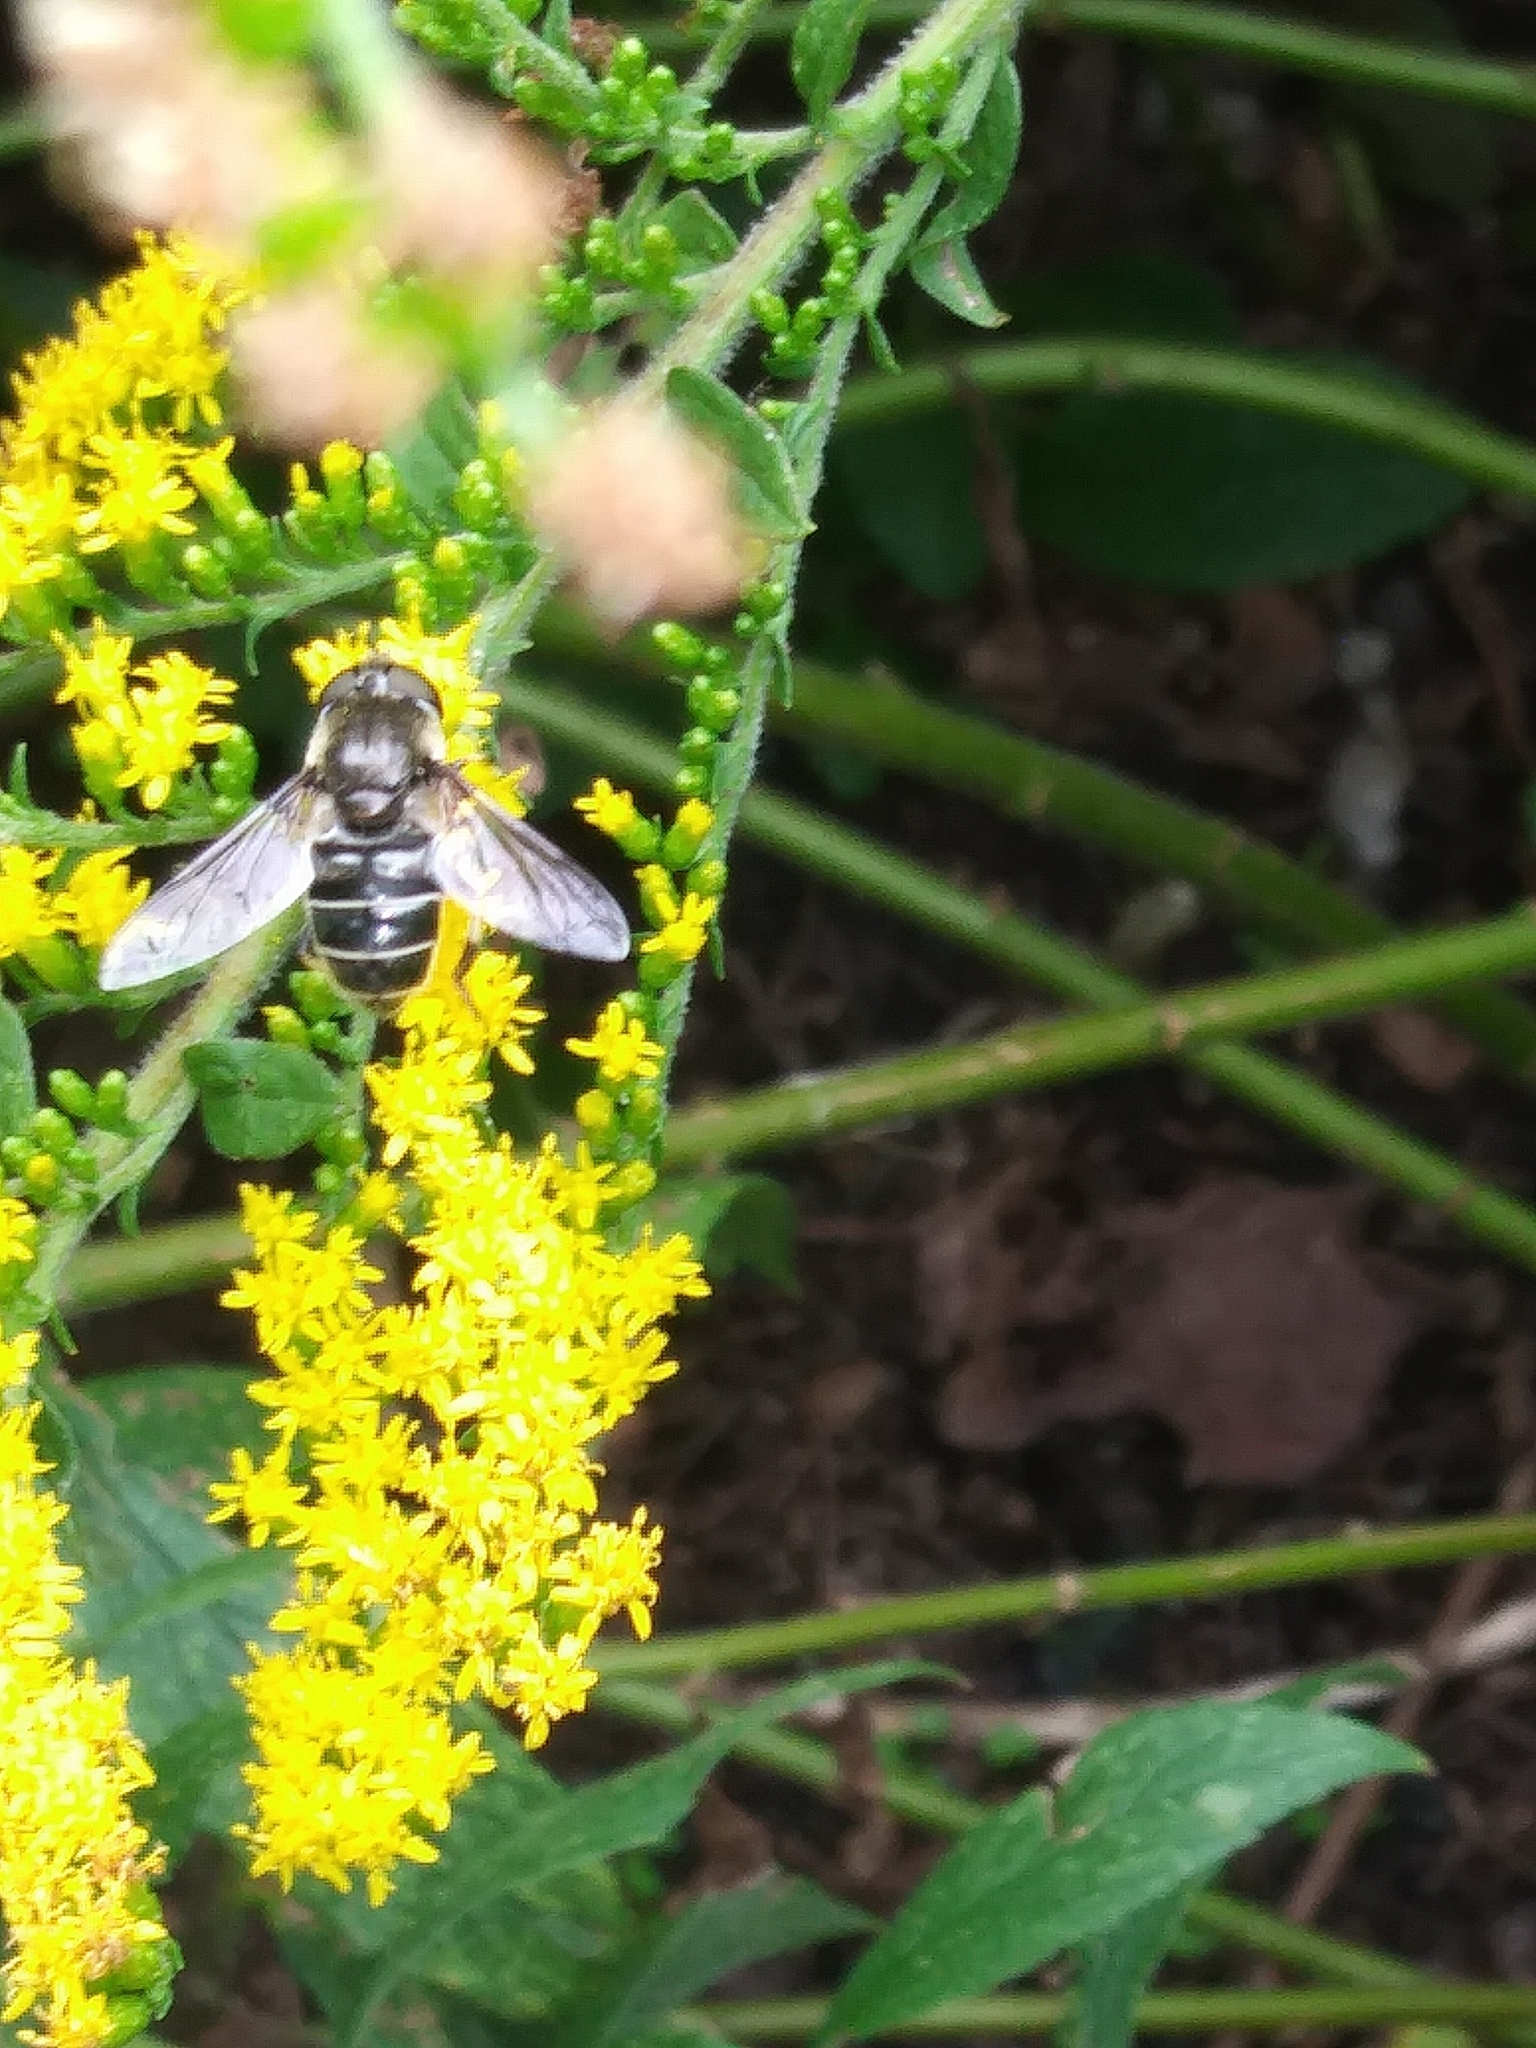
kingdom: Animalia
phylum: Arthropoda
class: Insecta
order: Diptera
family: Syrphidae
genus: Eristalis
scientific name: Eristalis dimidiata
